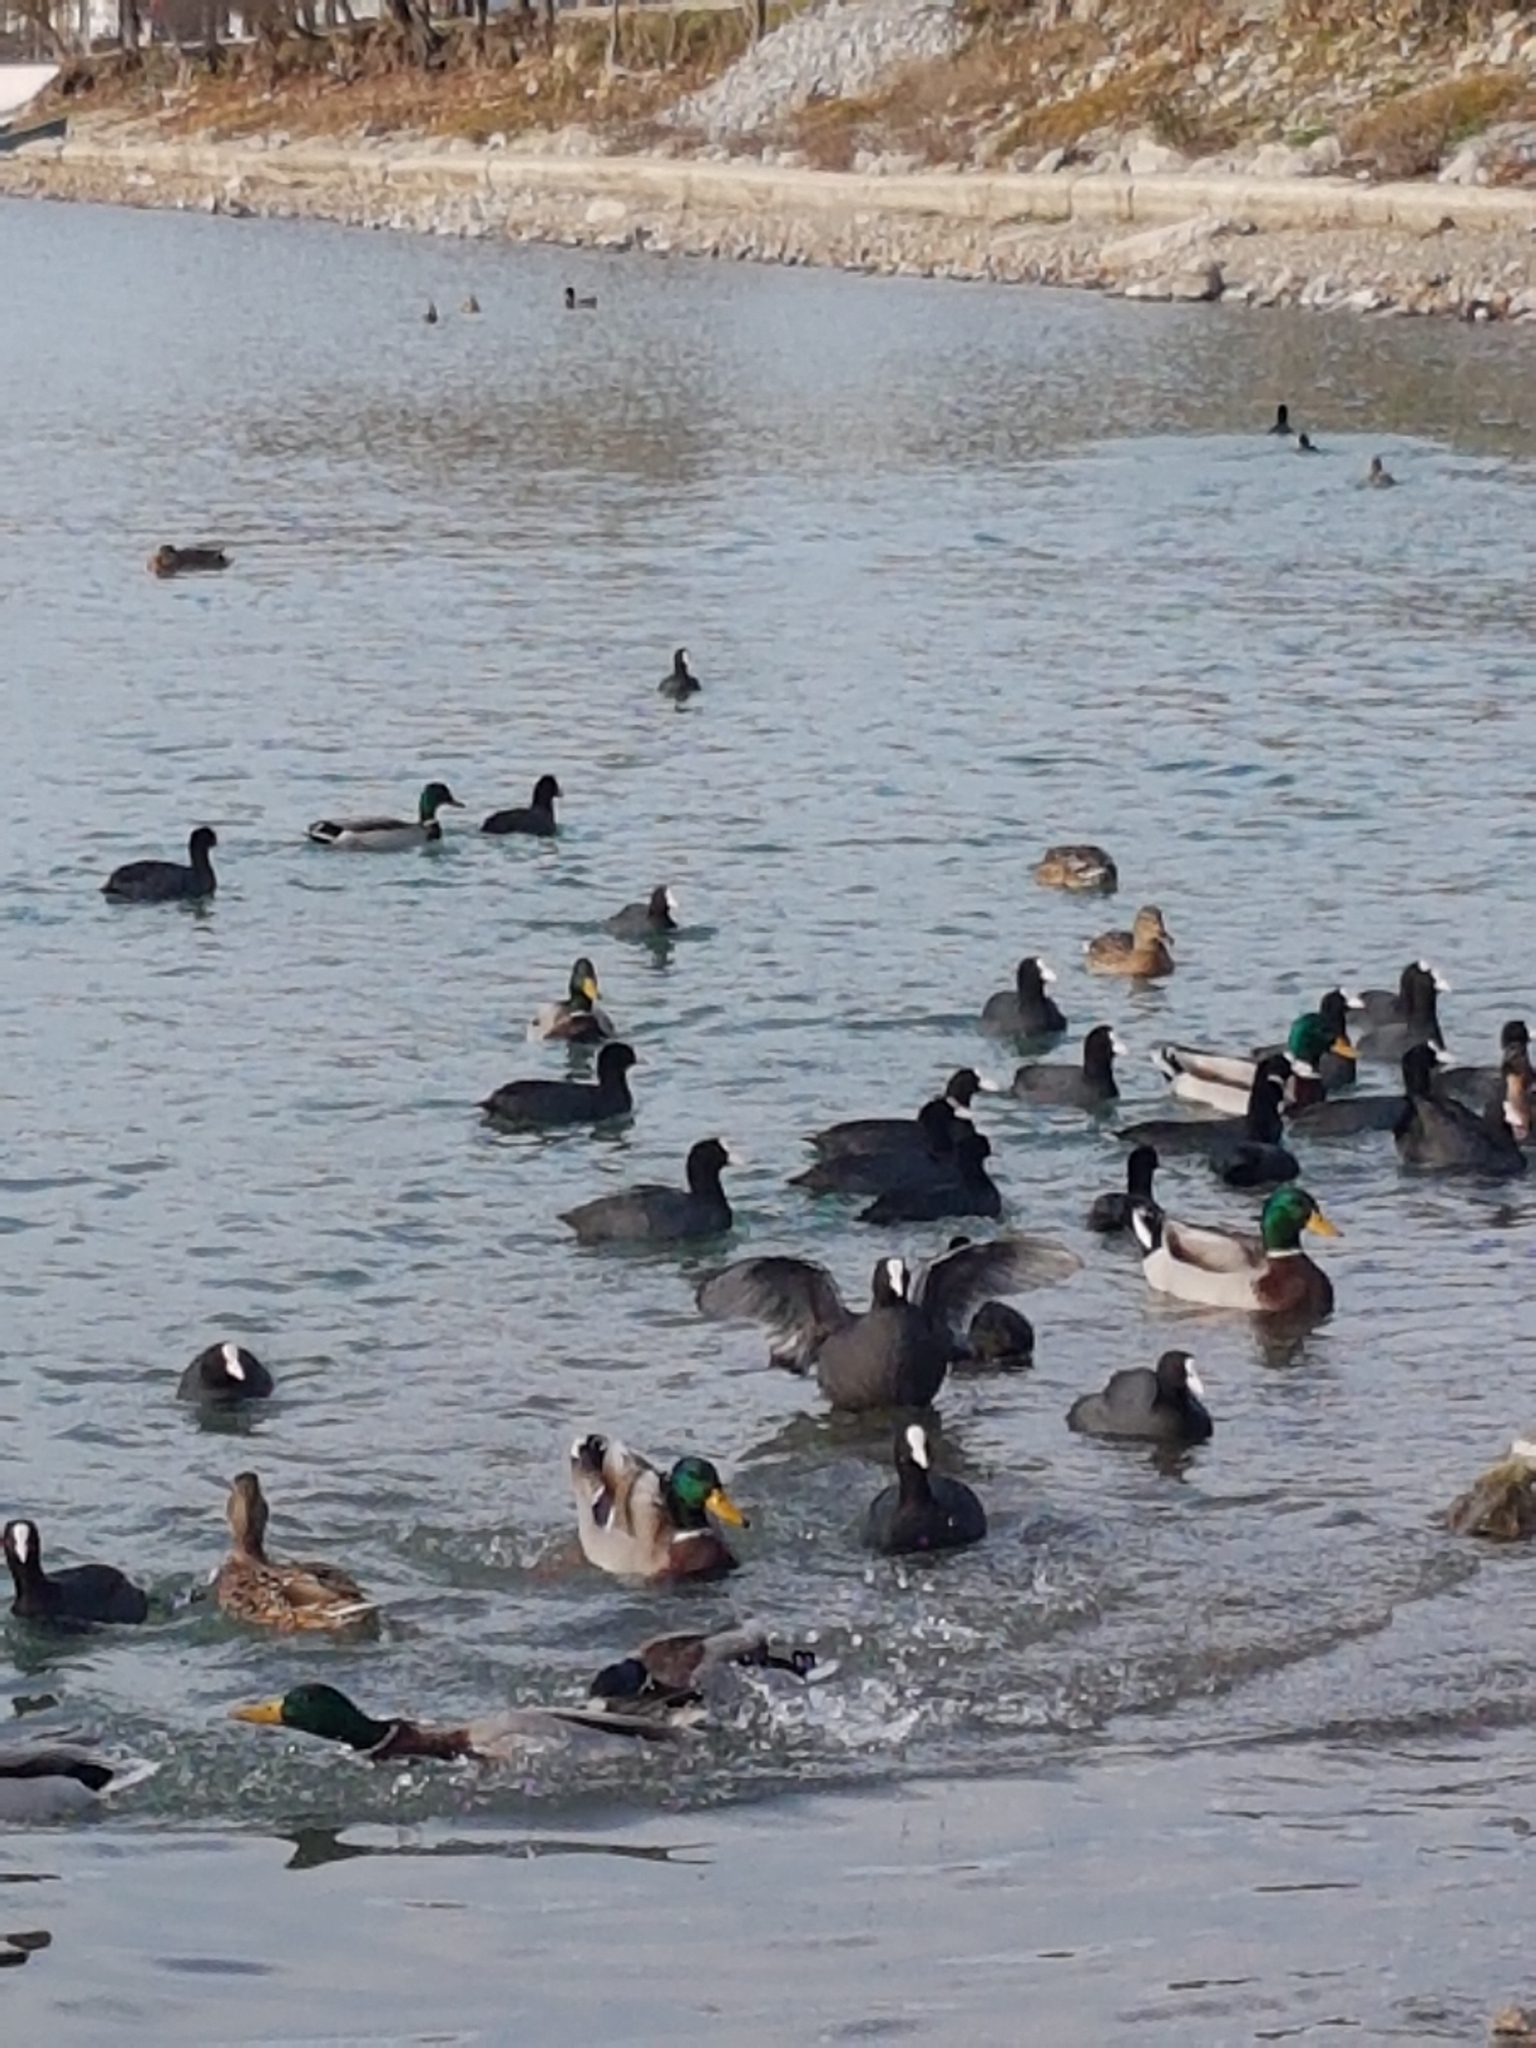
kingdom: Animalia
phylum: Chordata
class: Aves
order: Gruiformes
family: Rallidae
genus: Fulica
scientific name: Fulica atra
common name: Eurasian coot
